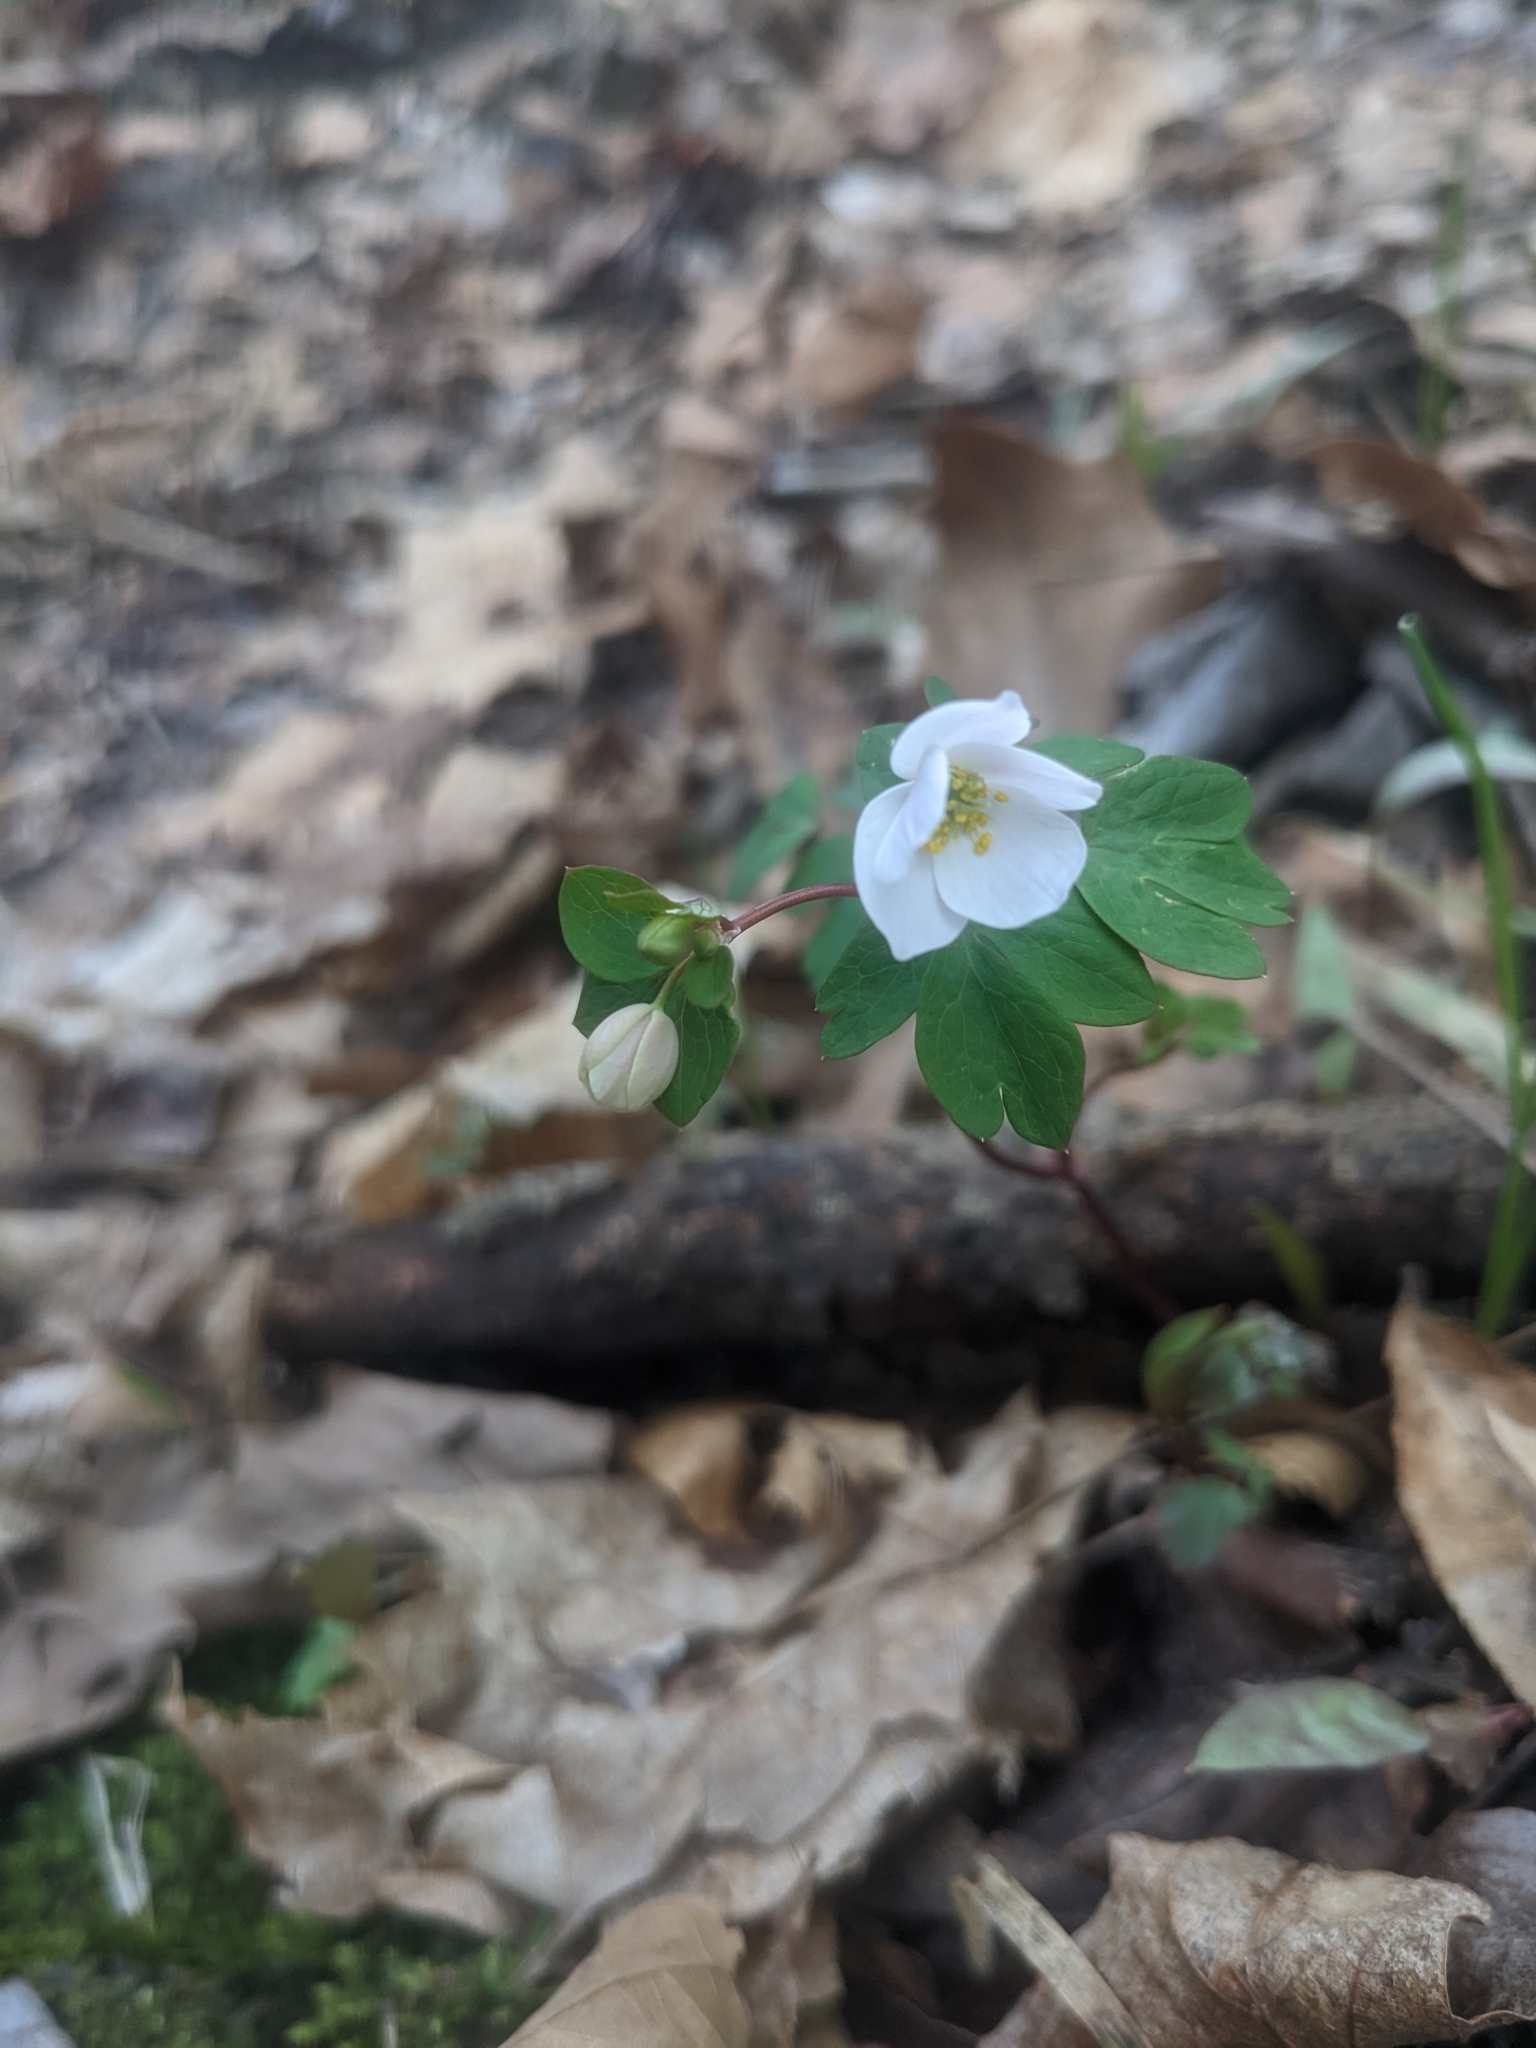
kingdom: Plantae
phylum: Tracheophyta
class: Magnoliopsida
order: Ranunculales
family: Ranunculaceae
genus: Enemion
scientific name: Enemion biternatum
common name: Eastern false rue-anemone
